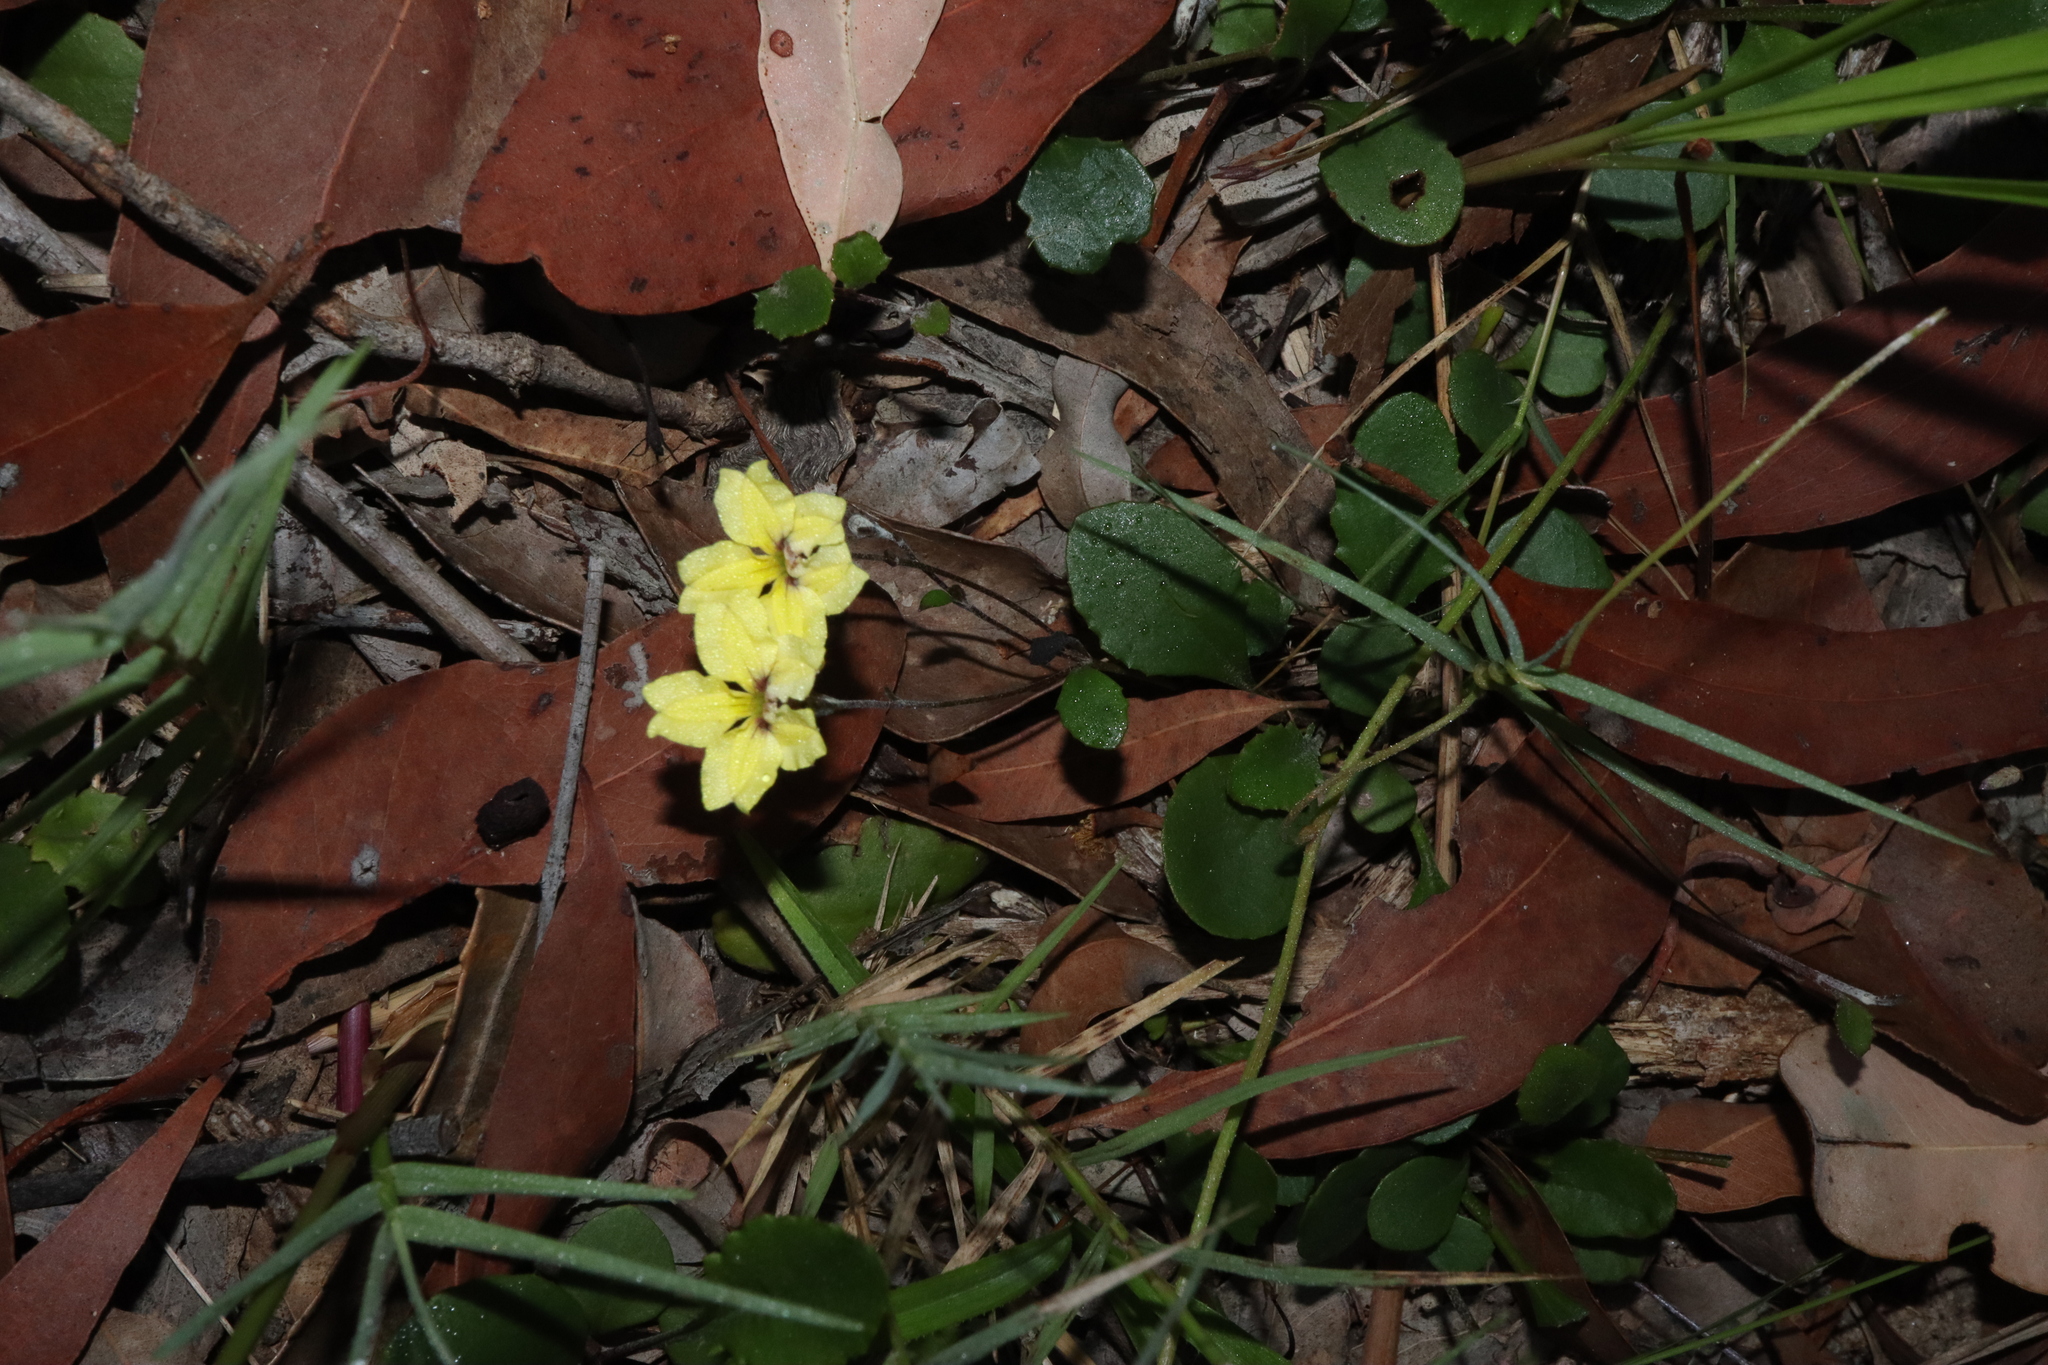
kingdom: Plantae
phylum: Tracheophyta
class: Magnoliopsida
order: Asterales
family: Goodeniaceae
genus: Goodenia
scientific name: Goodenia hederacea
